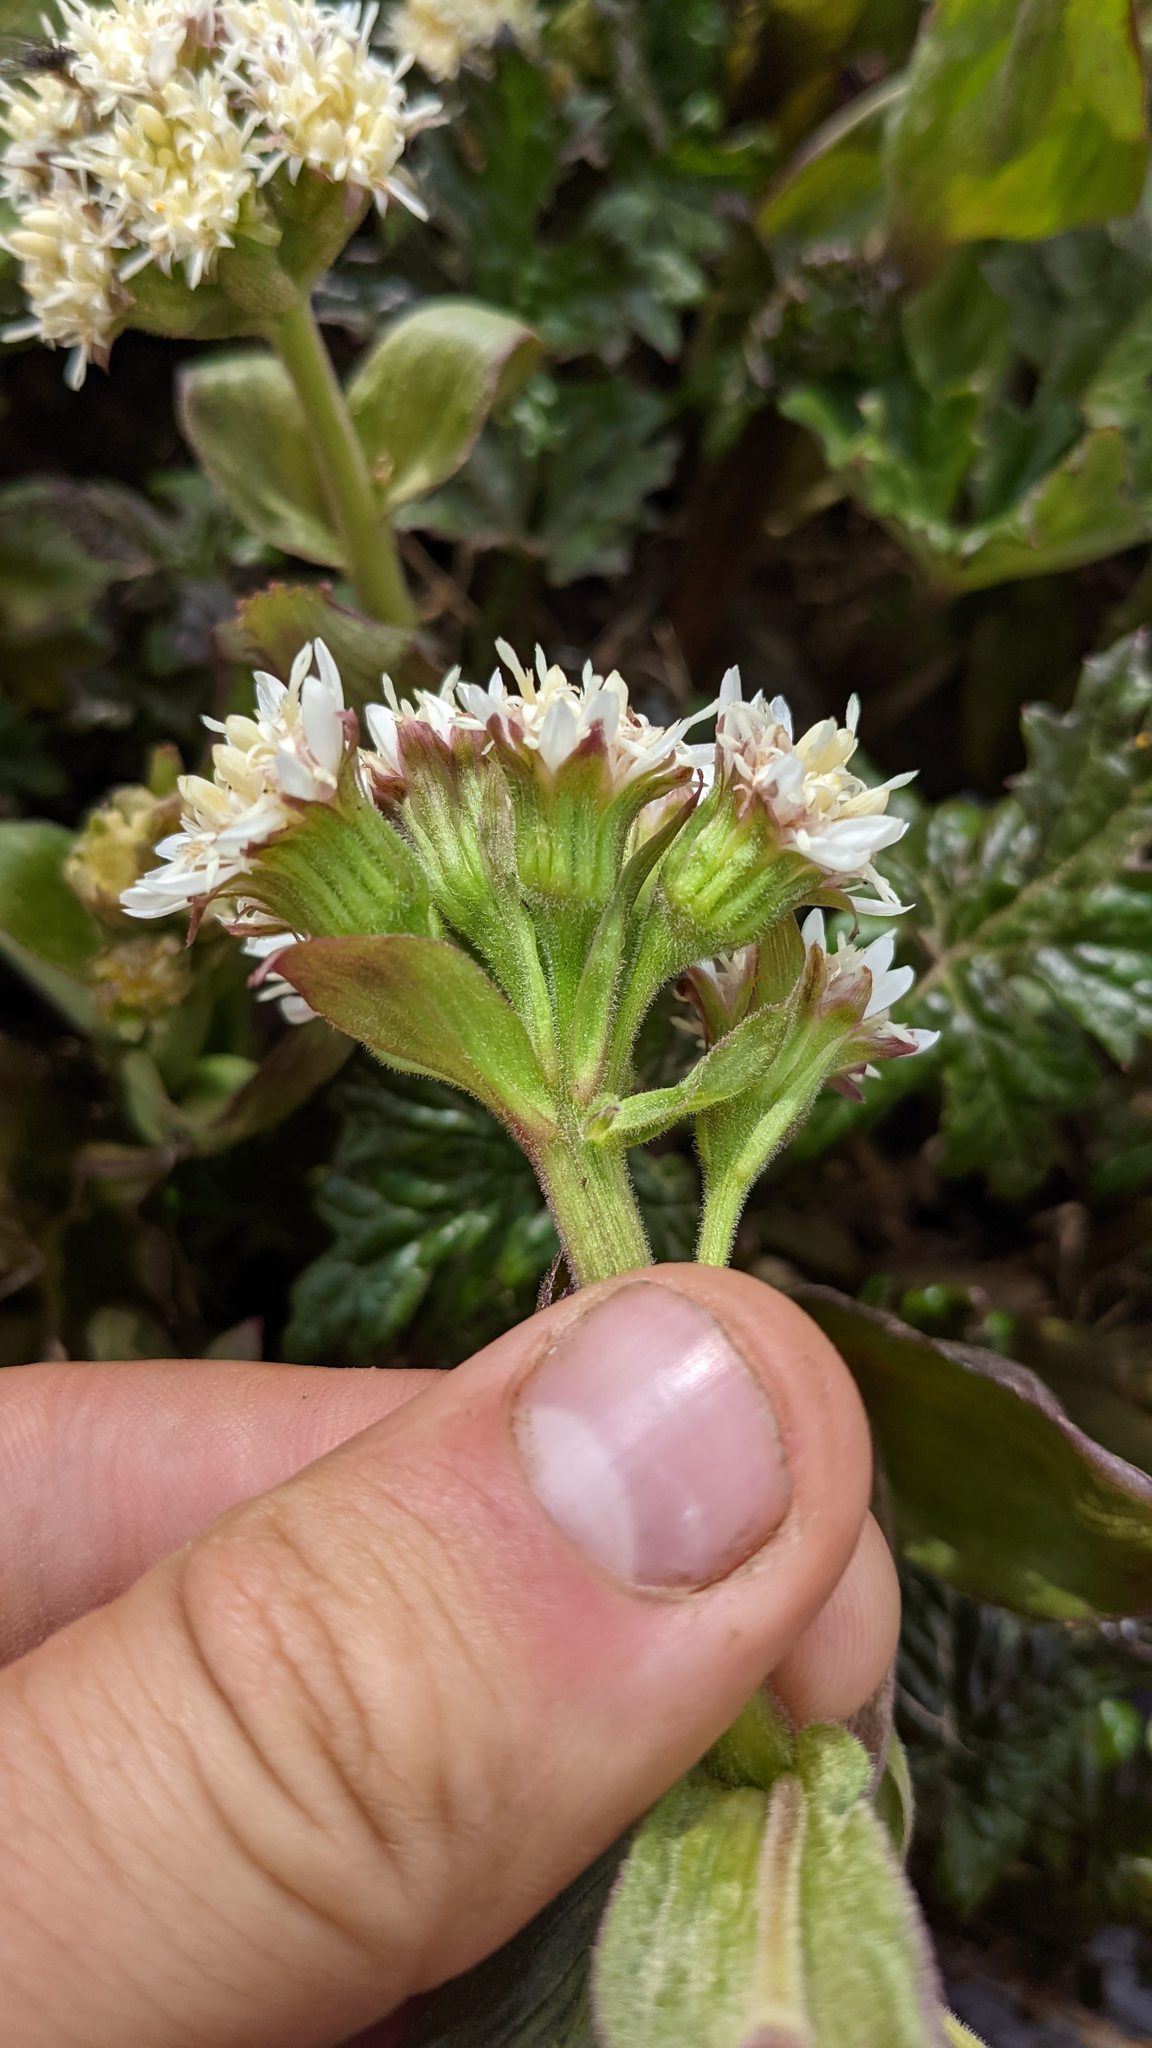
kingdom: Plantae
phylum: Tracheophyta
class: Magnoliopsida
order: Asterales
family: Asteraceae
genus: Petasites
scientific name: Petasites frigidus
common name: Arctic butterbur
